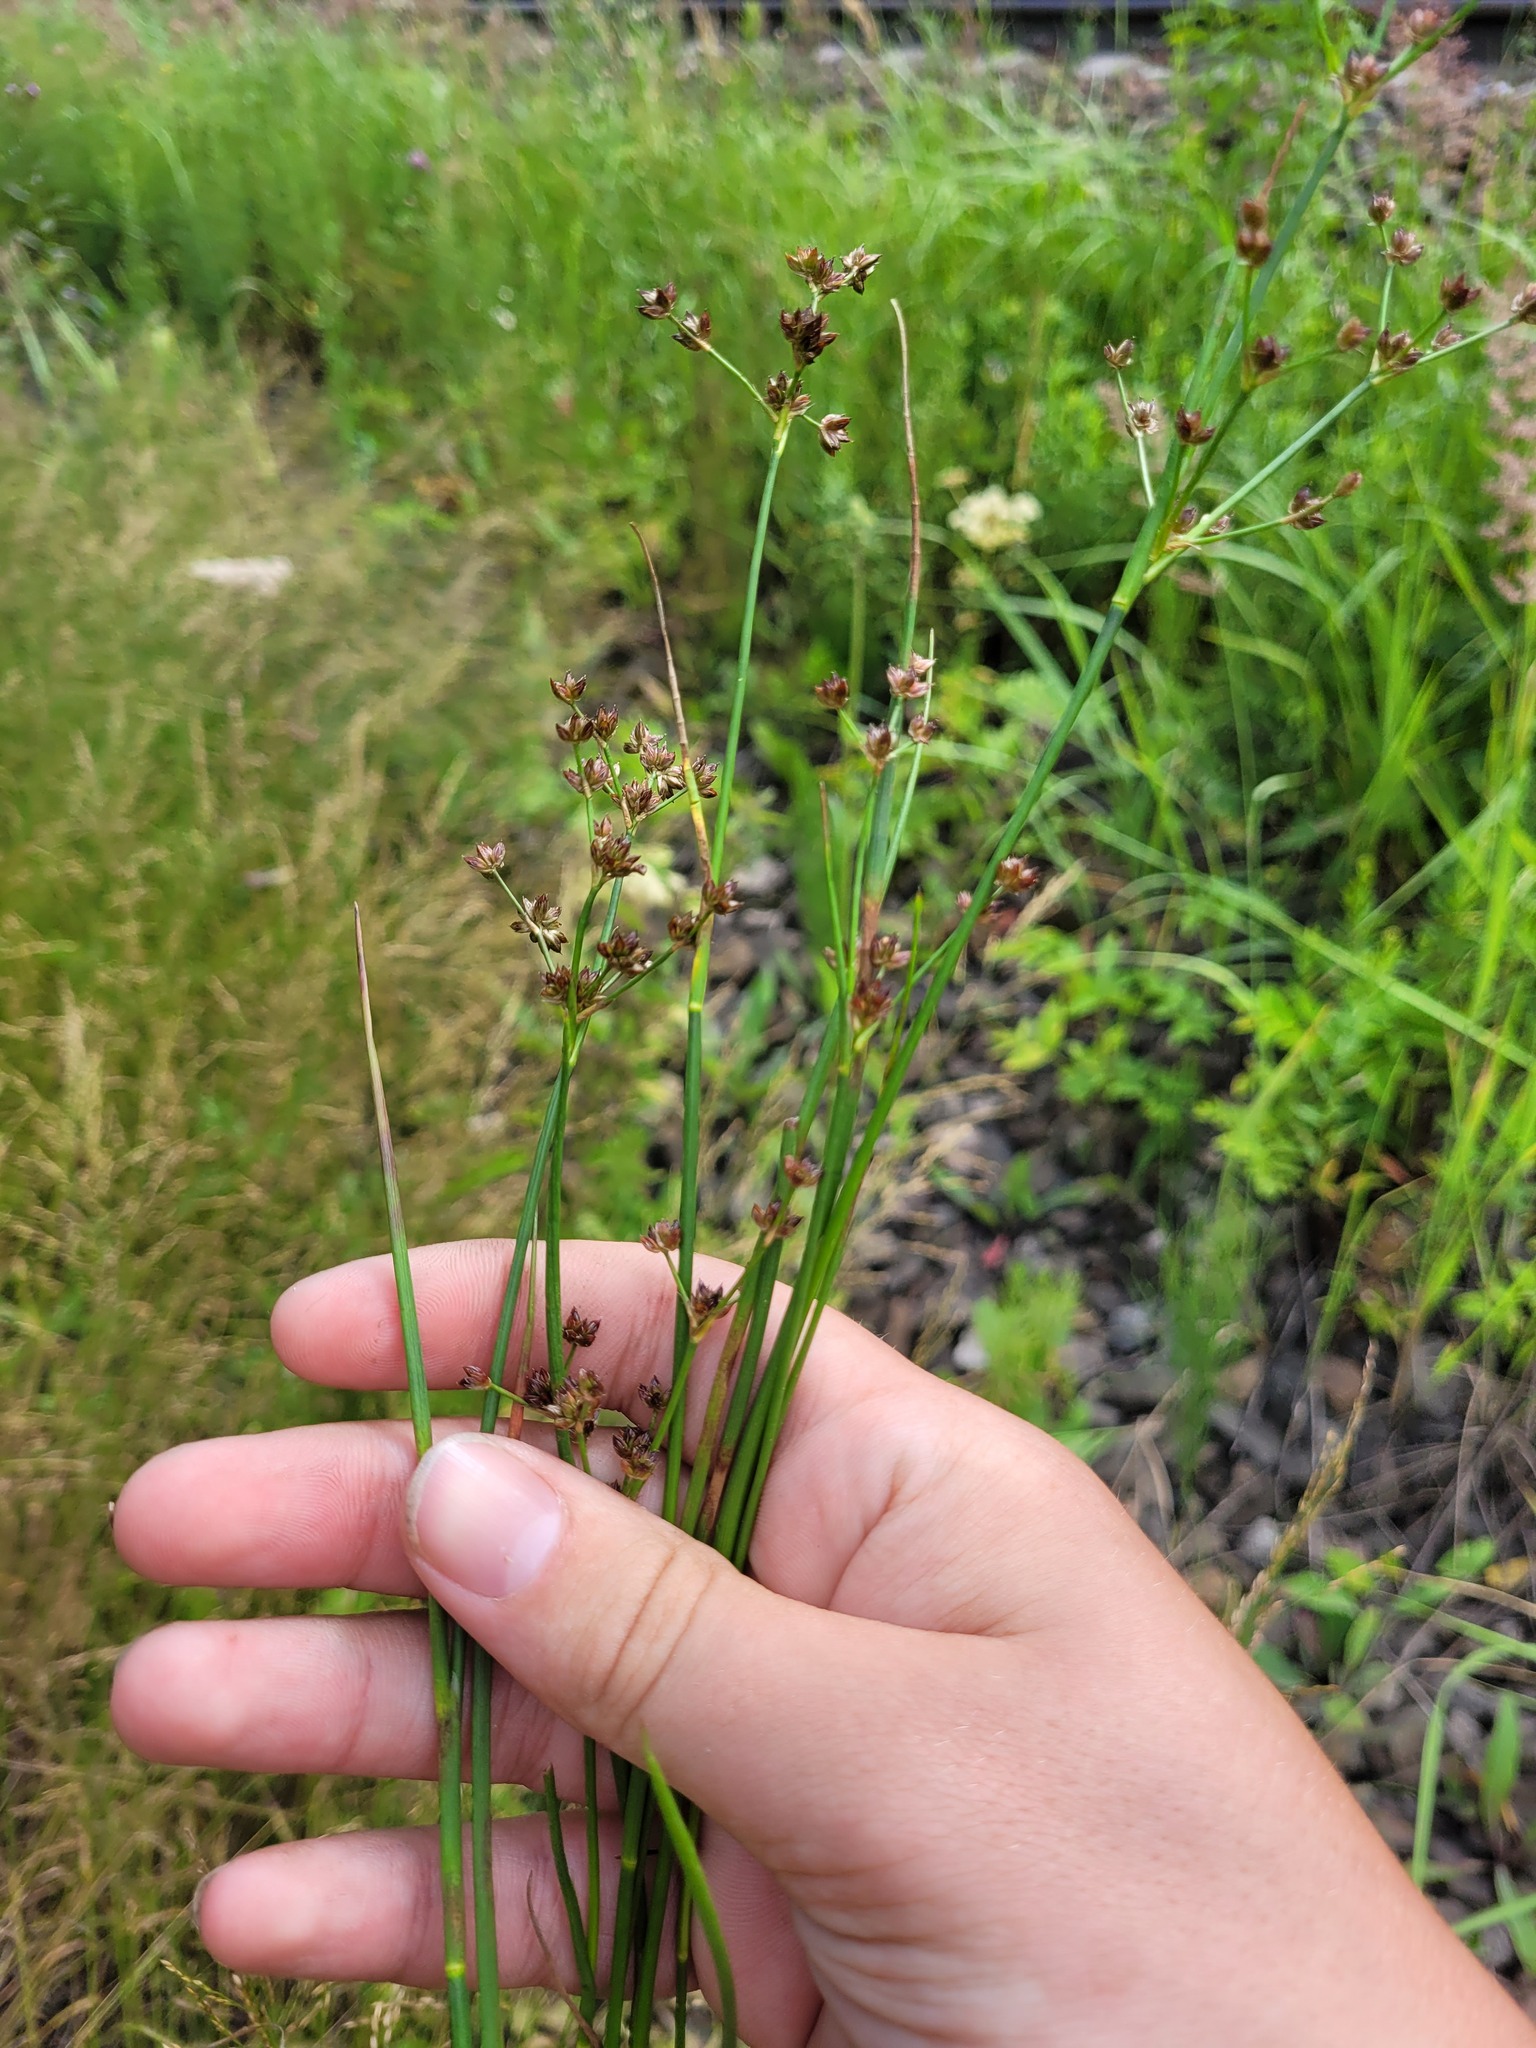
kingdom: Plantae
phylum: Tracheophyta
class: Liliopsida
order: Poales
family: Juncaceae
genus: Juncus
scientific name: Juncus articulatus
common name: Jointed rush
